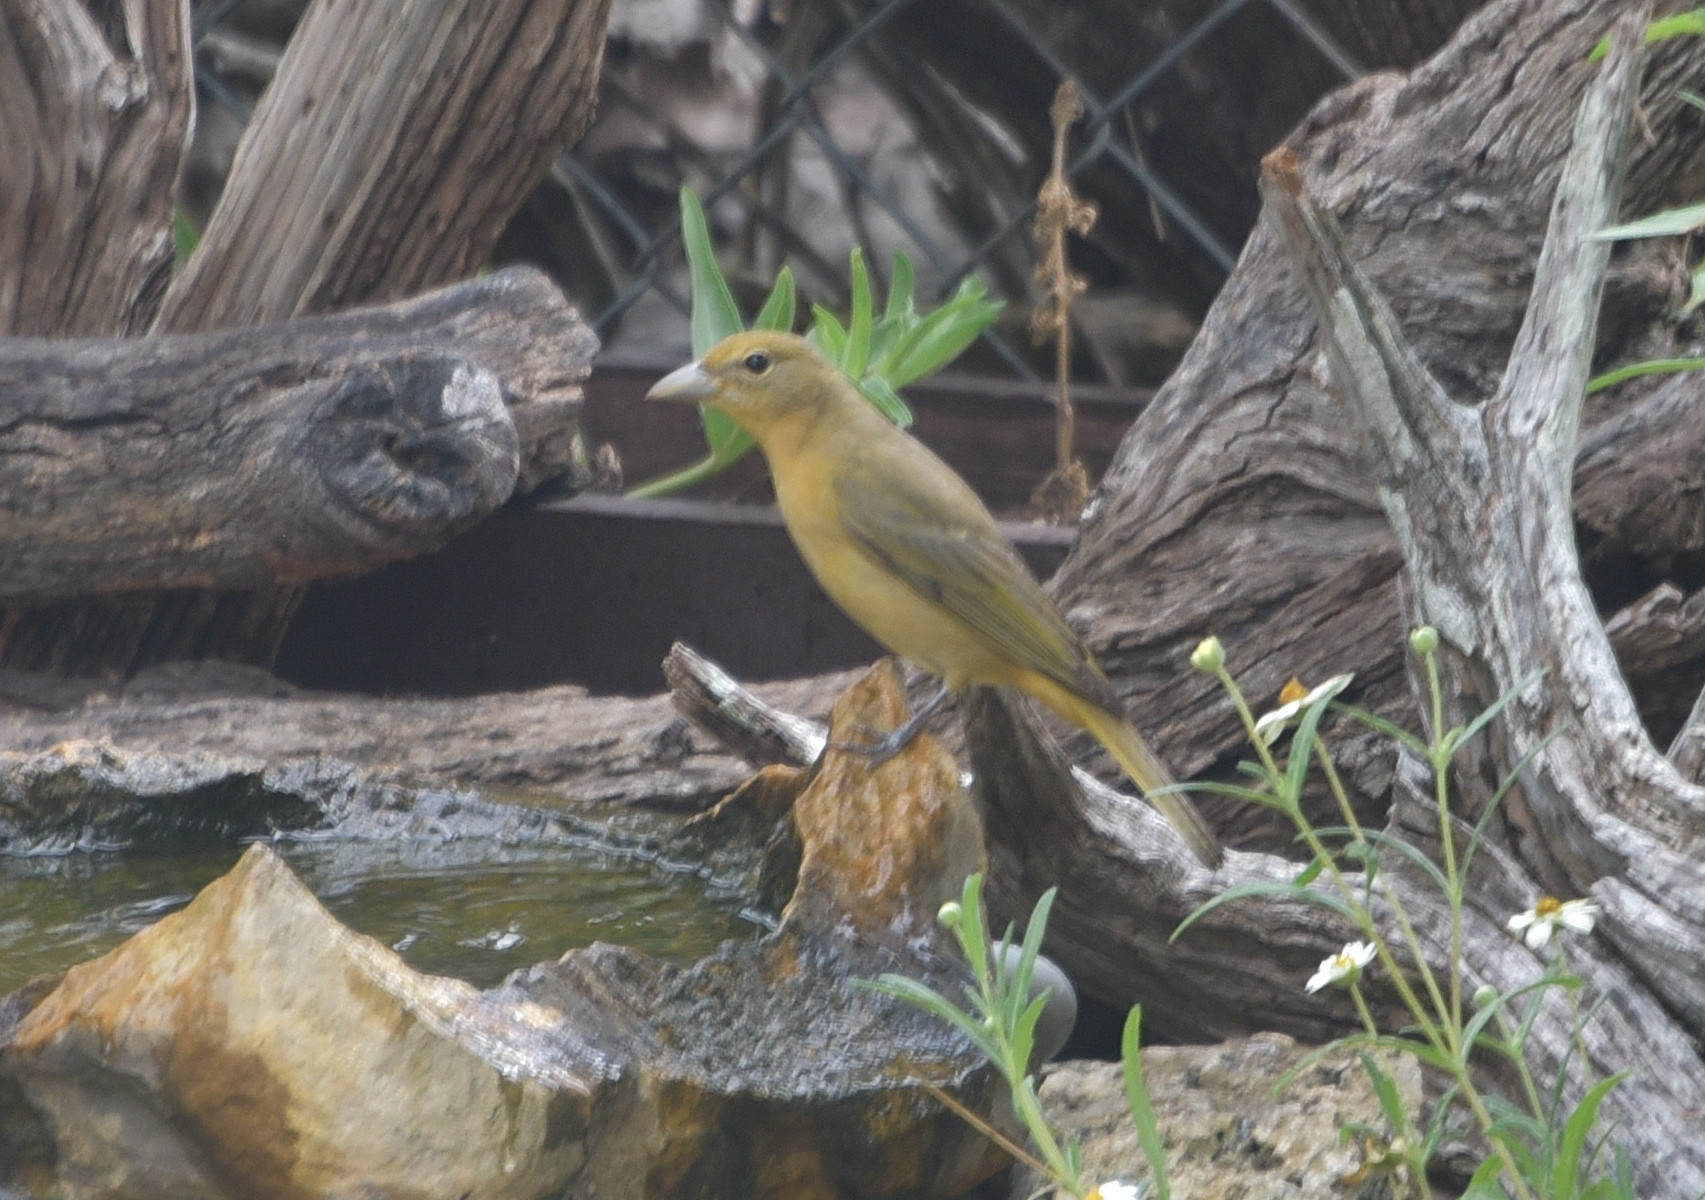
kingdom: Animalia
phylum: Chordata
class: Aves
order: Passeriformes
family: Cardinalidae
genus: Piranga
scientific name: Piranga rubra
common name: Summer tanager
